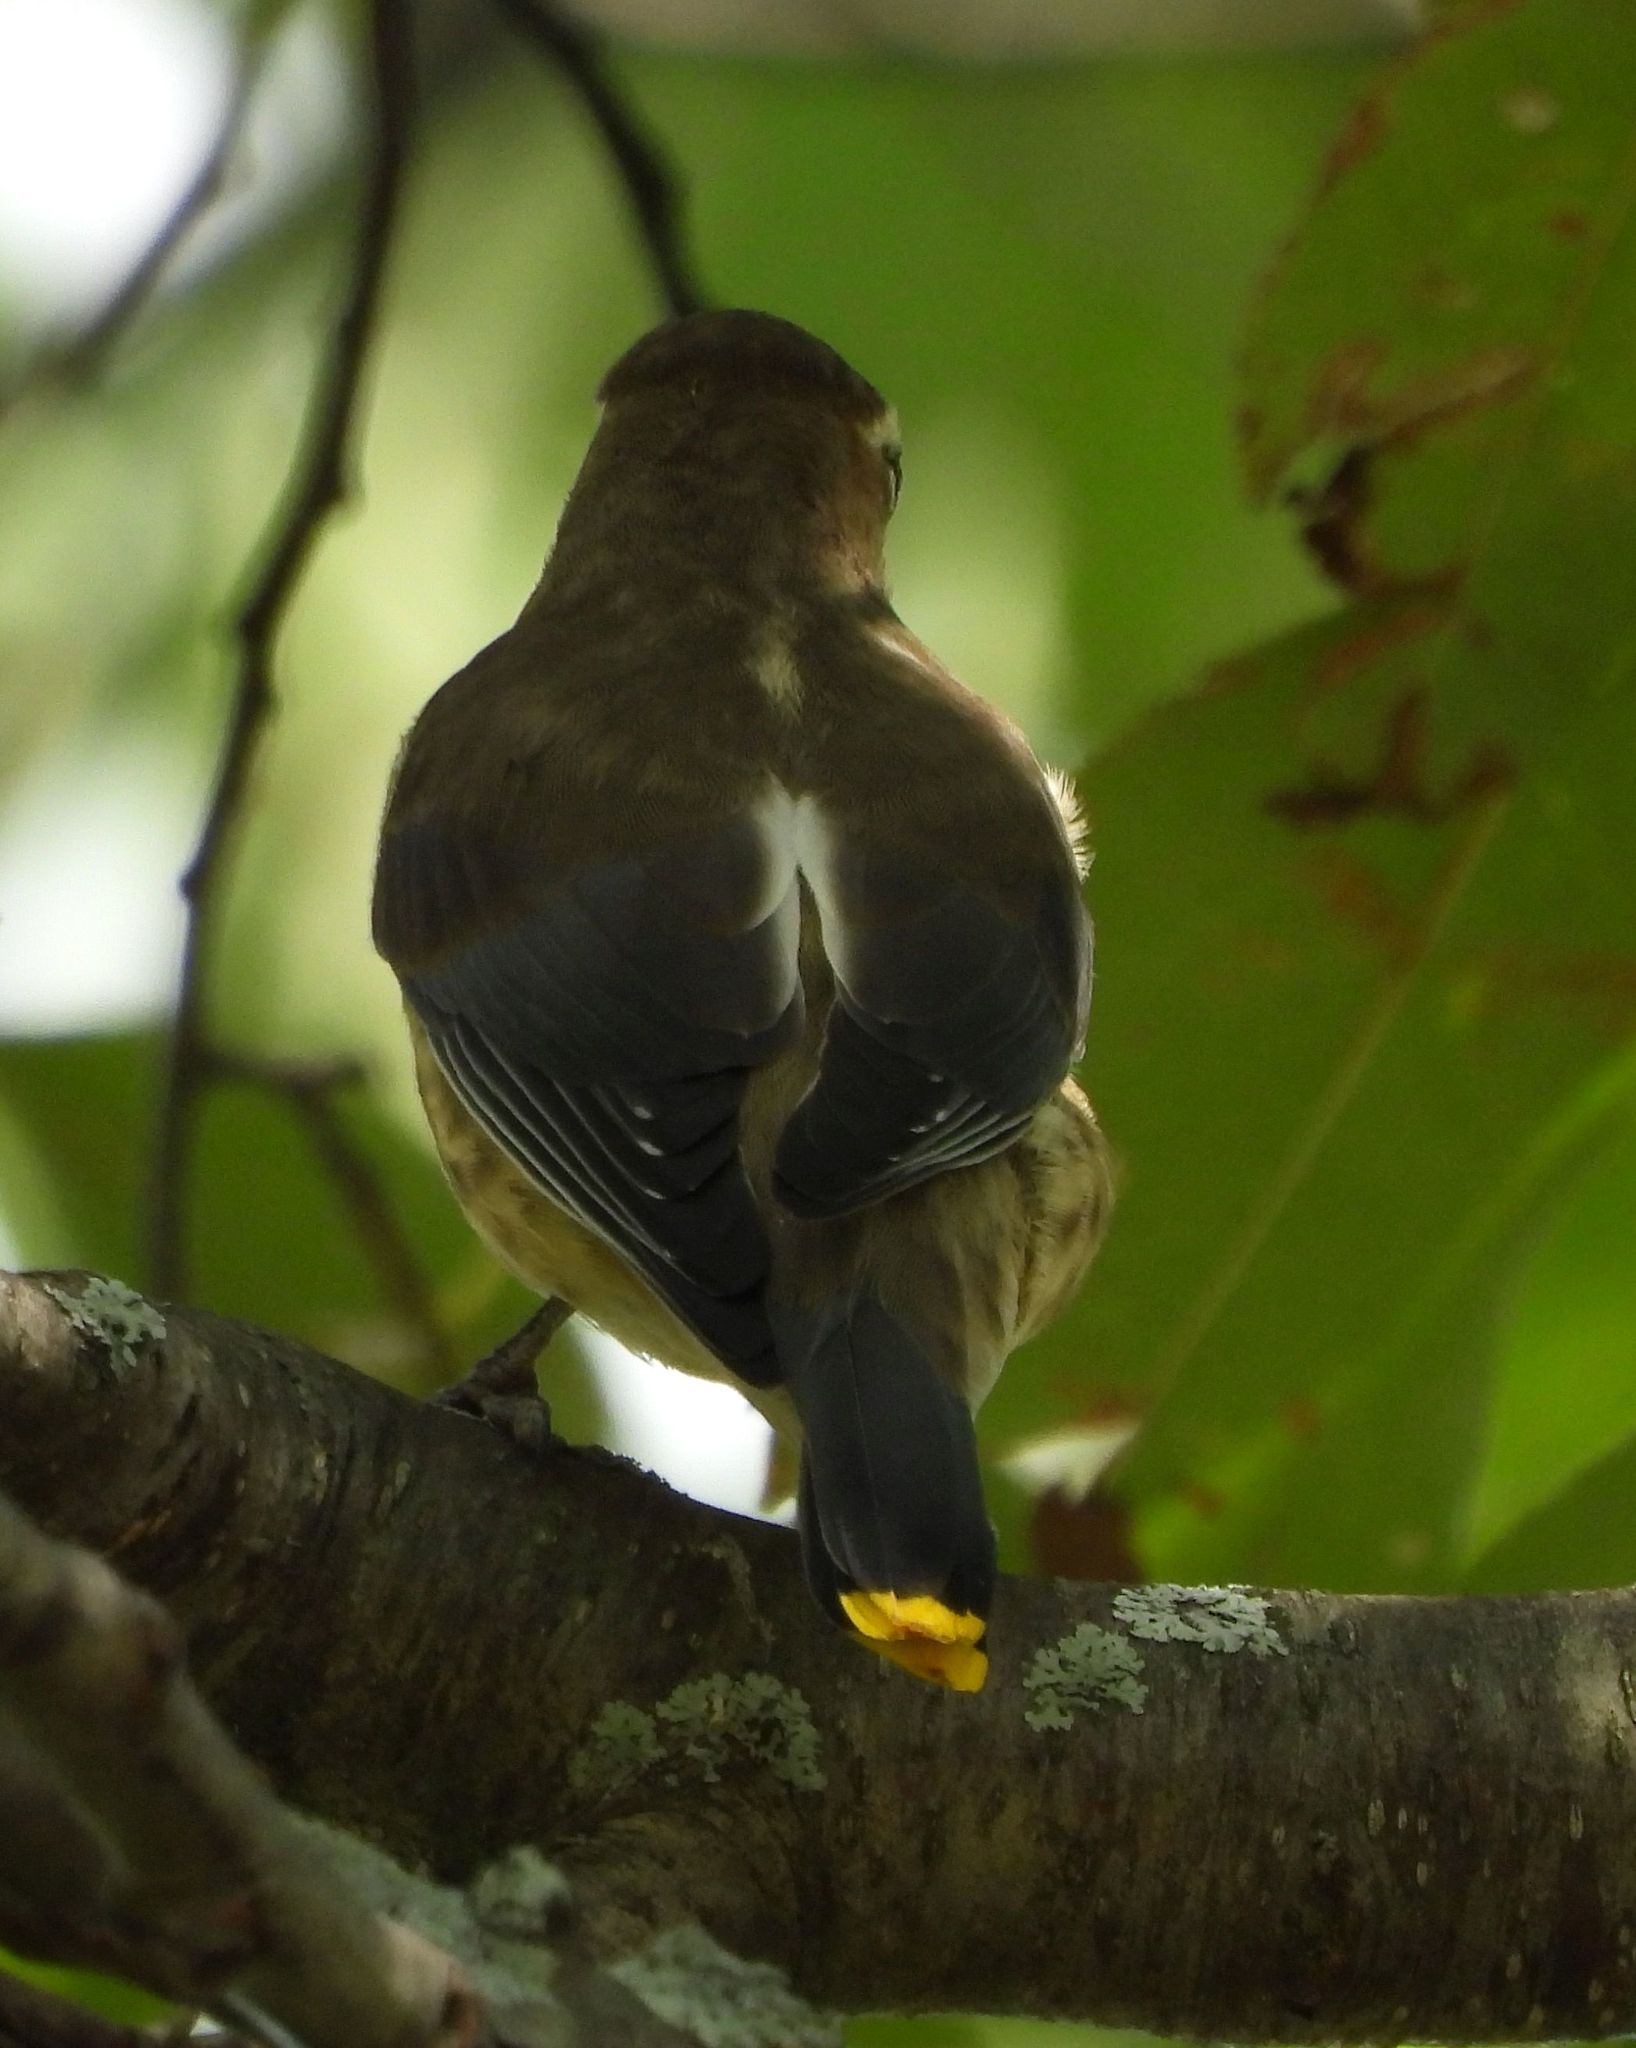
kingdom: Animalia
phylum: Chordata
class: Aves
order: Passeriformes
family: Bombycillidae
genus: Bombycilla
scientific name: Bombycilla cedrorum
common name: Cedar waxwing
